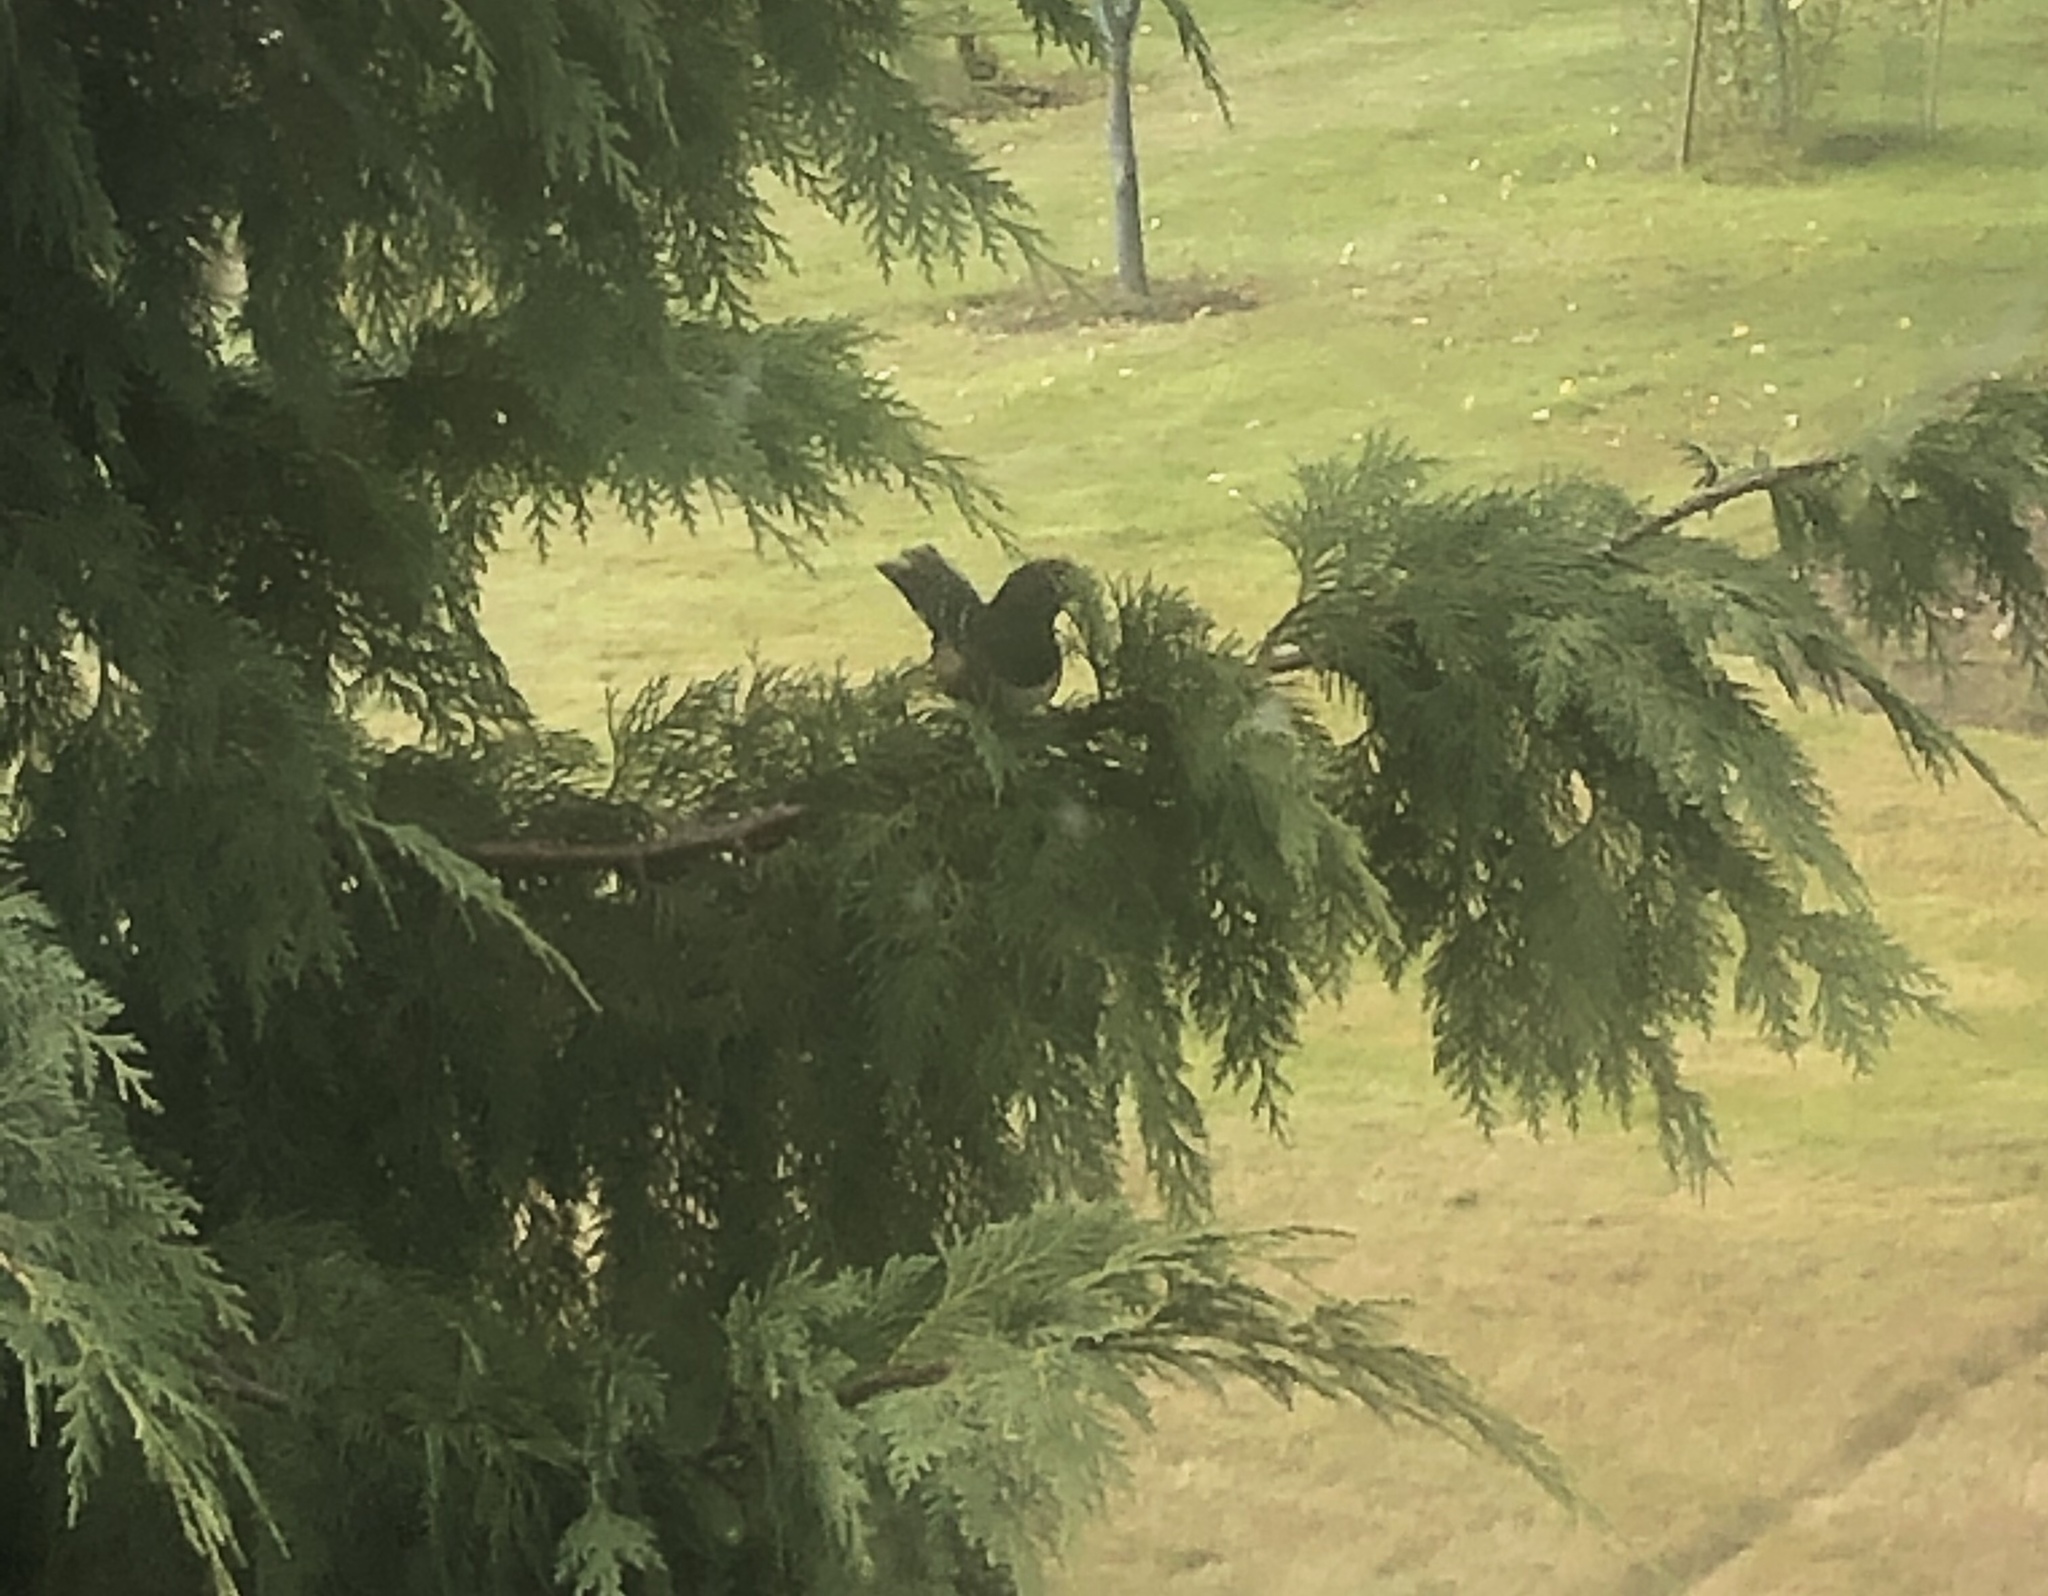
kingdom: Animalia
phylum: Chordata
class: Aves
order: Passeriformes
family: Passerellidae
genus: Pipilo
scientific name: Pipilo maculatus
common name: Spotted towhee
